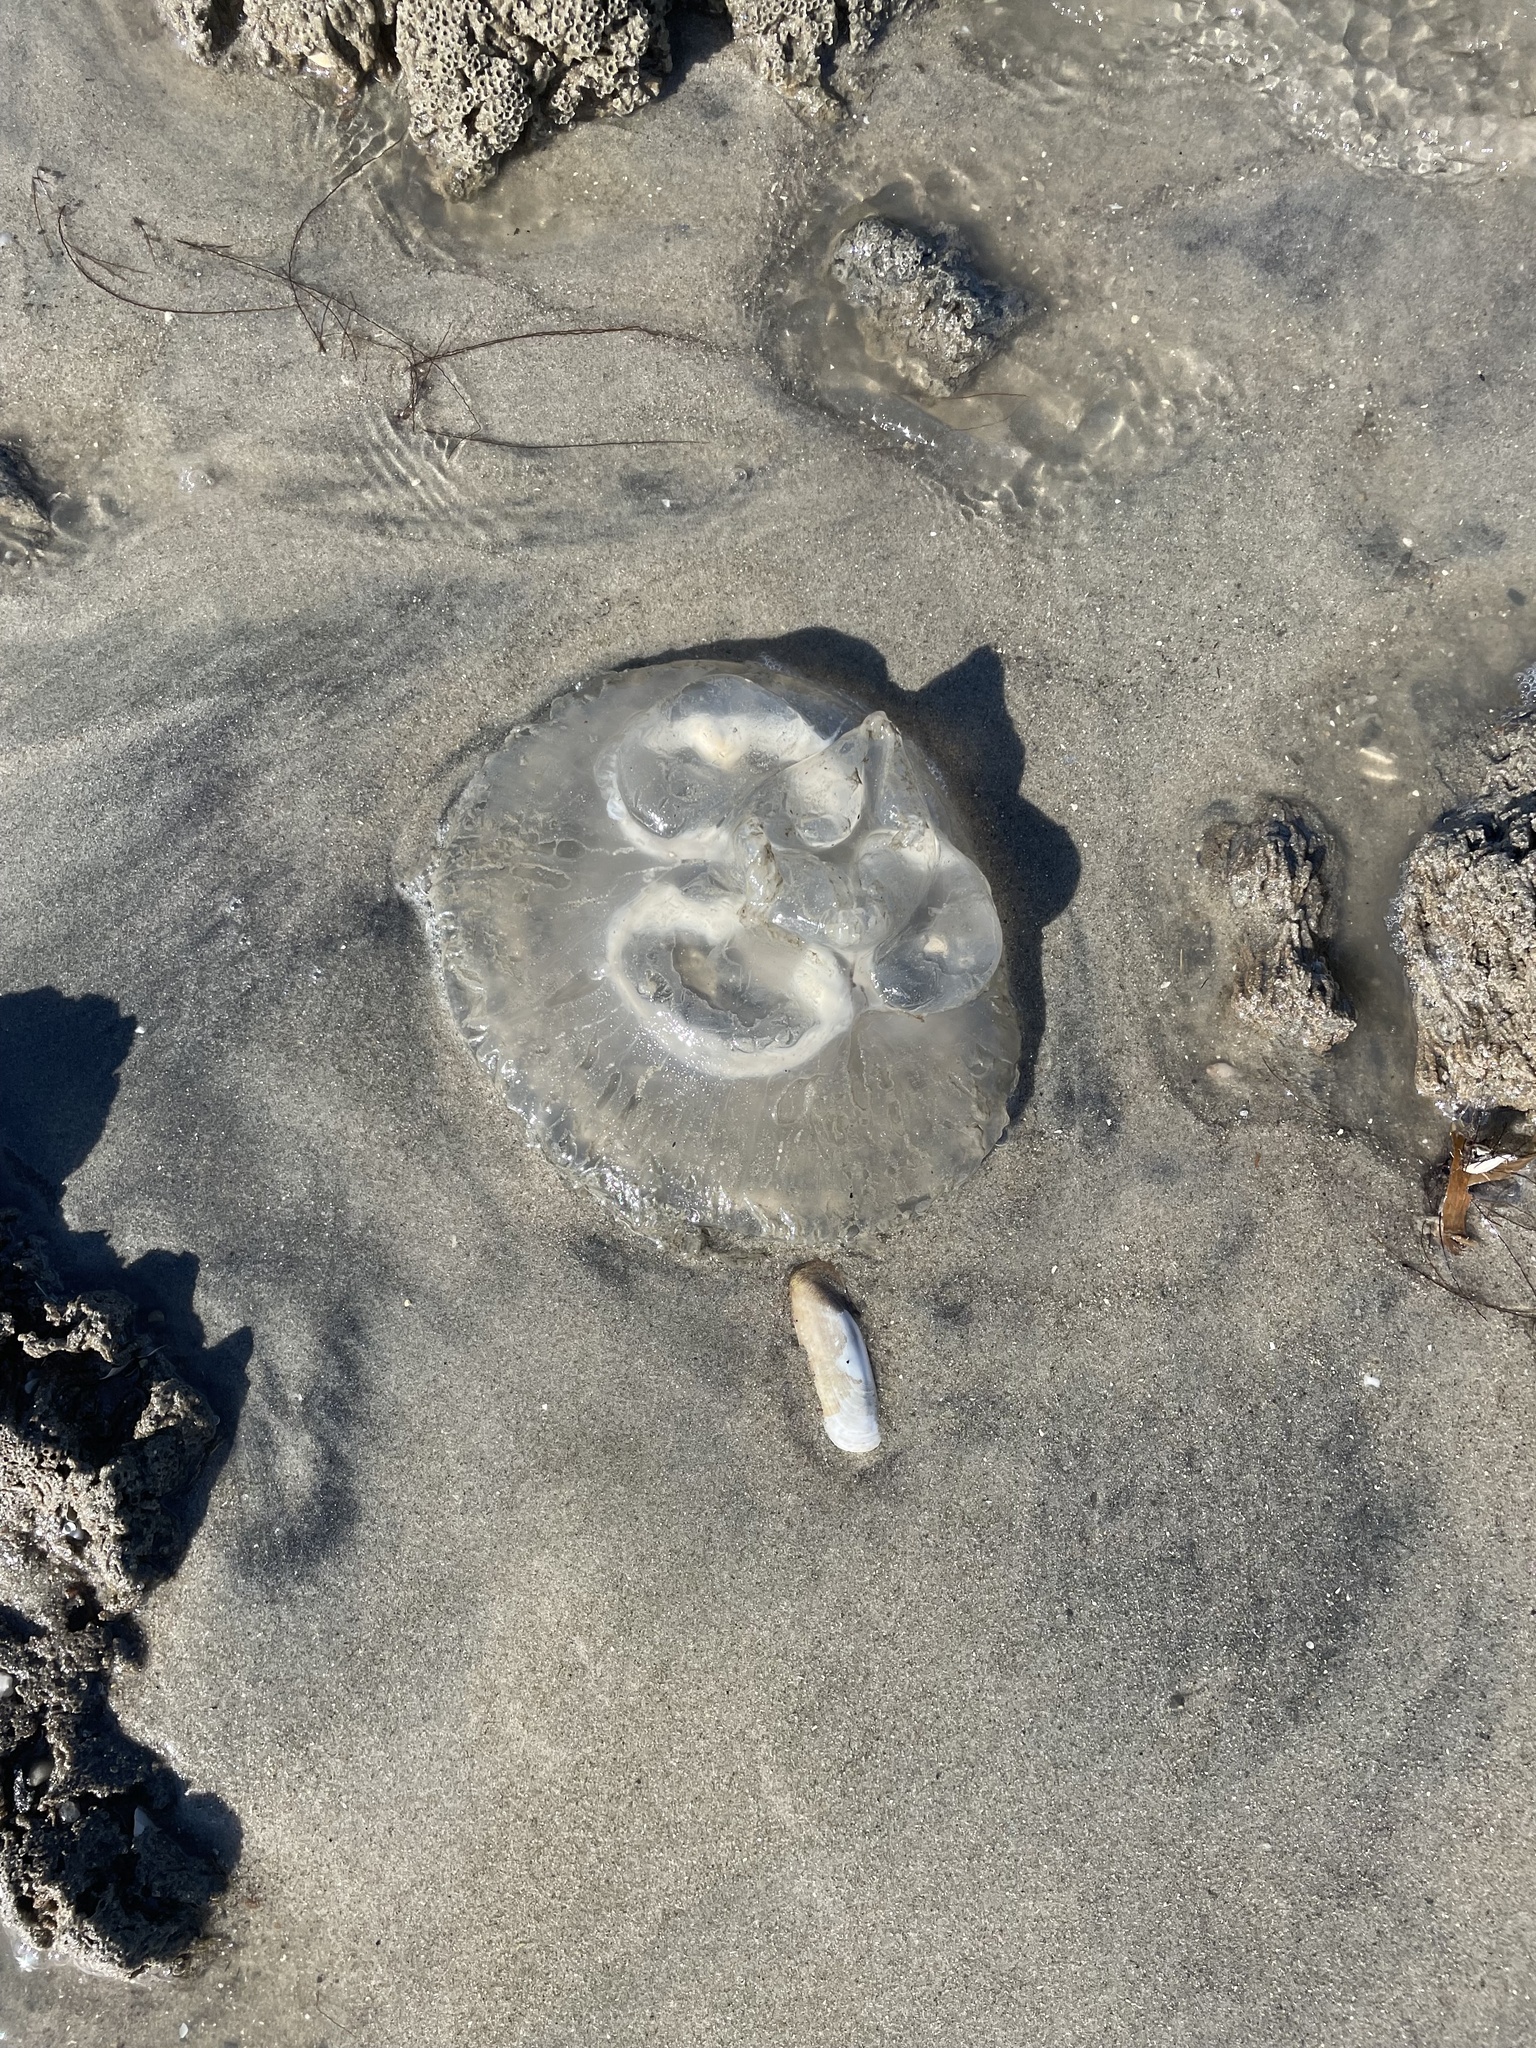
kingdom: Animalia
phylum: Cnidaria
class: Scyphozoa
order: Semaeostomeae
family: Ulmaridae
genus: Aurelia
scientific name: Aurelia
